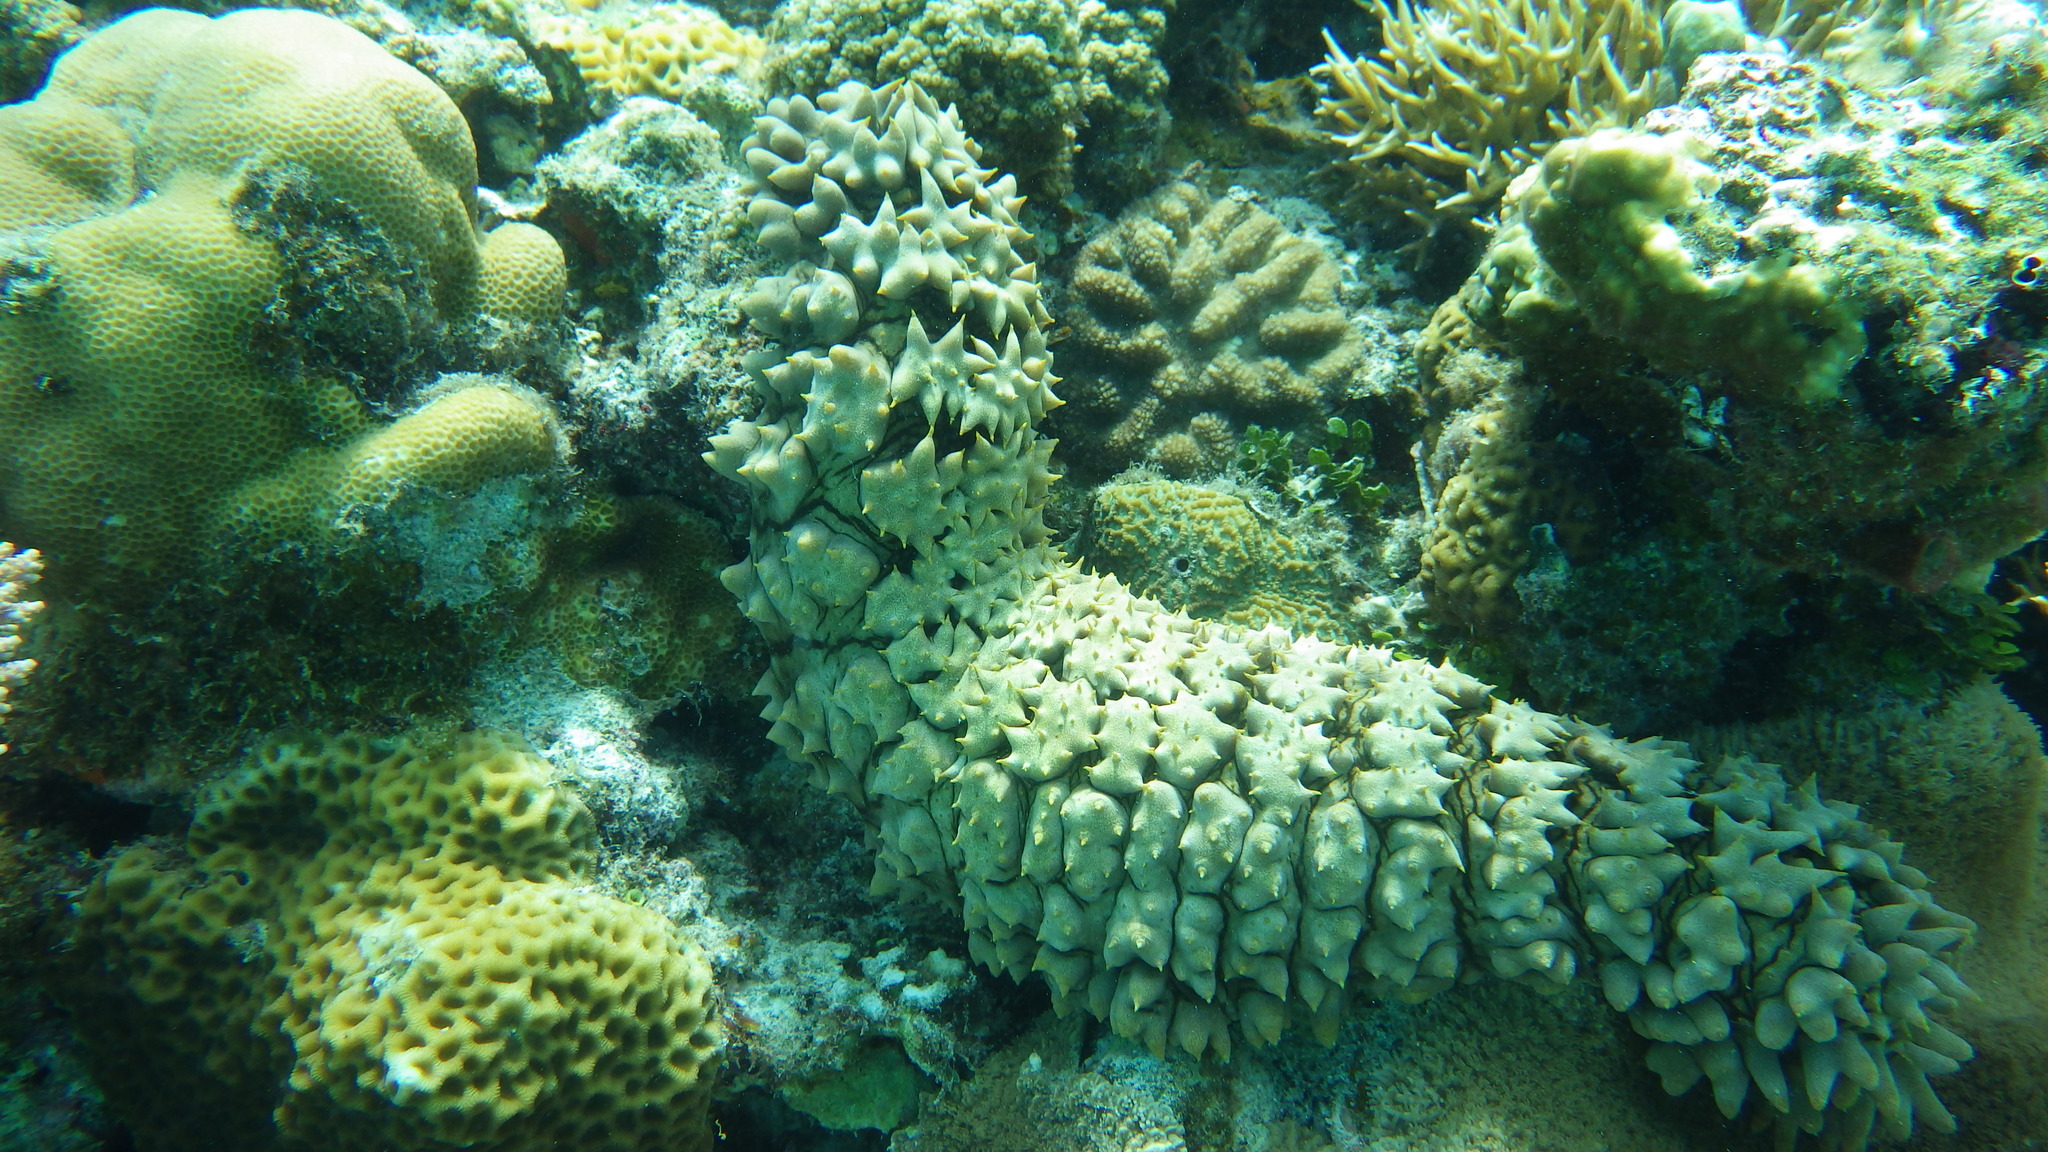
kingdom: Animalia
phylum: Echinodermata
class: Holothuroidea
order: Synallactida
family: Stichopodidae
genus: Thelenota
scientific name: Thelenota ananas
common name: Prickly redfish
